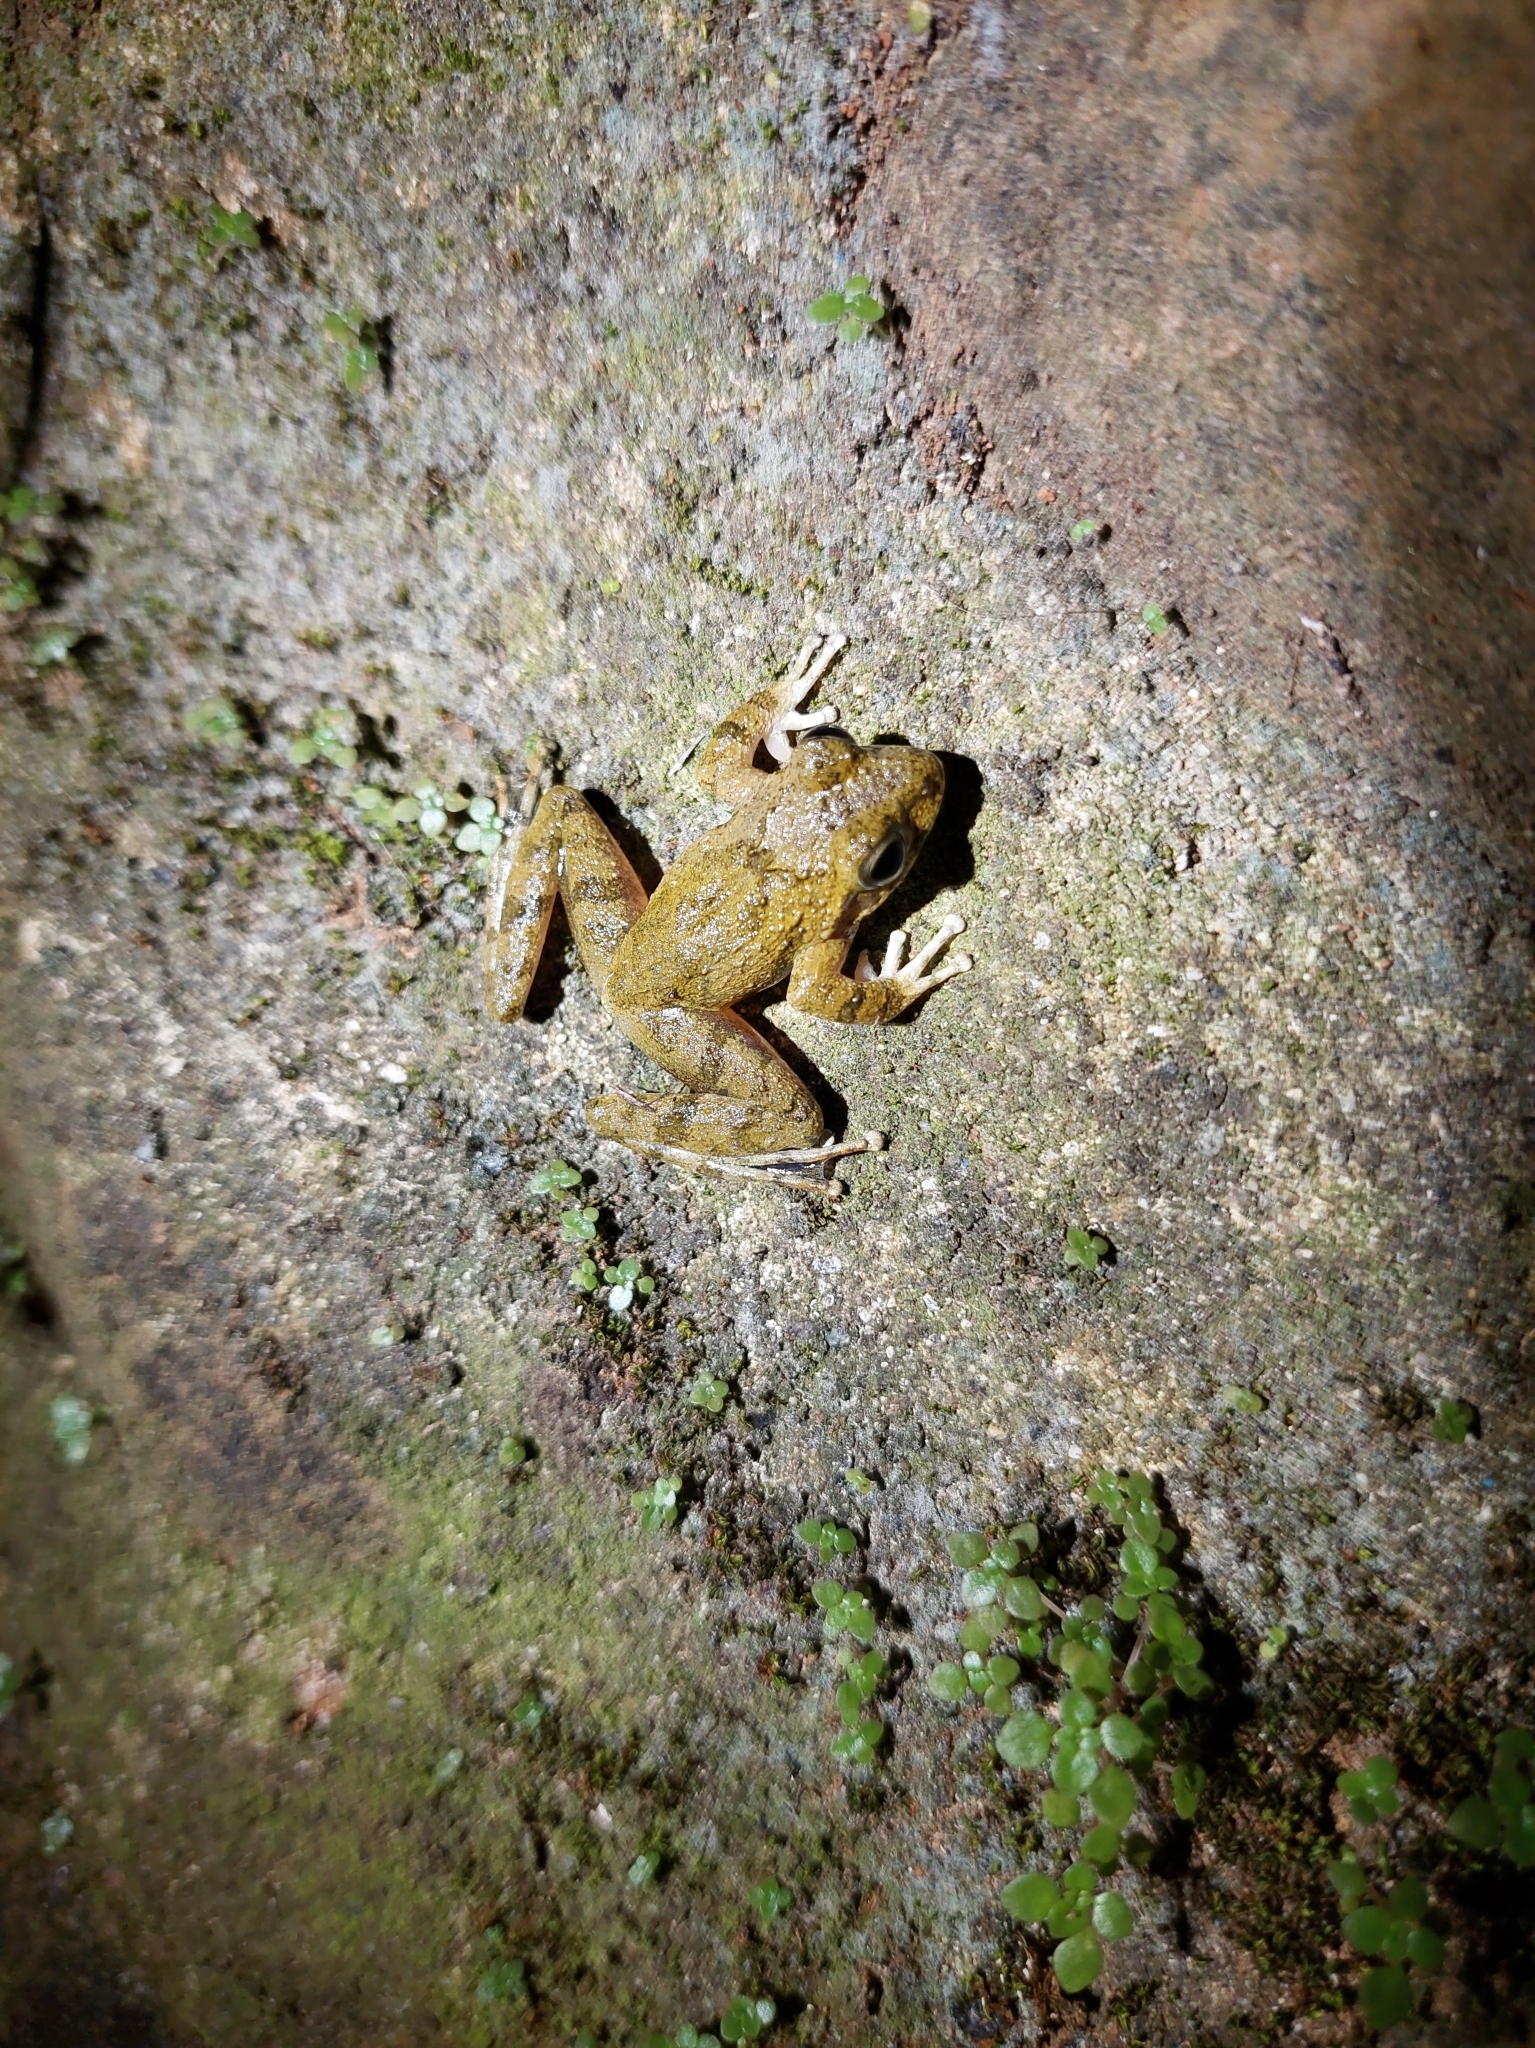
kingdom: Animalia
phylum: Chordata
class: Amphibia
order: Anura
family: Rhacophoridae
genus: Buergeria
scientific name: Buergeria otai
